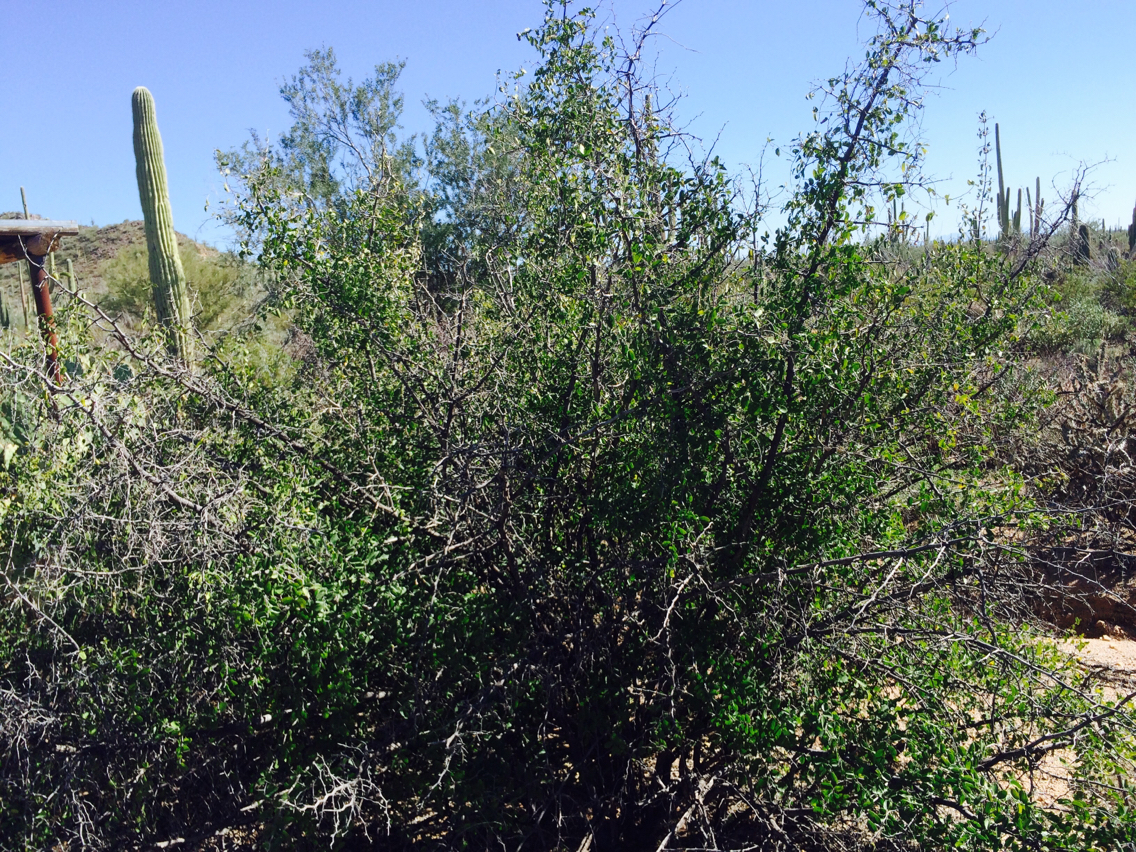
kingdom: Plantae
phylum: Tracheophyta
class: Magnoliopsida
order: Rosales
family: Cannabaceae
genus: Celtis
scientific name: Celtis pallida
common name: Desert hackberry
